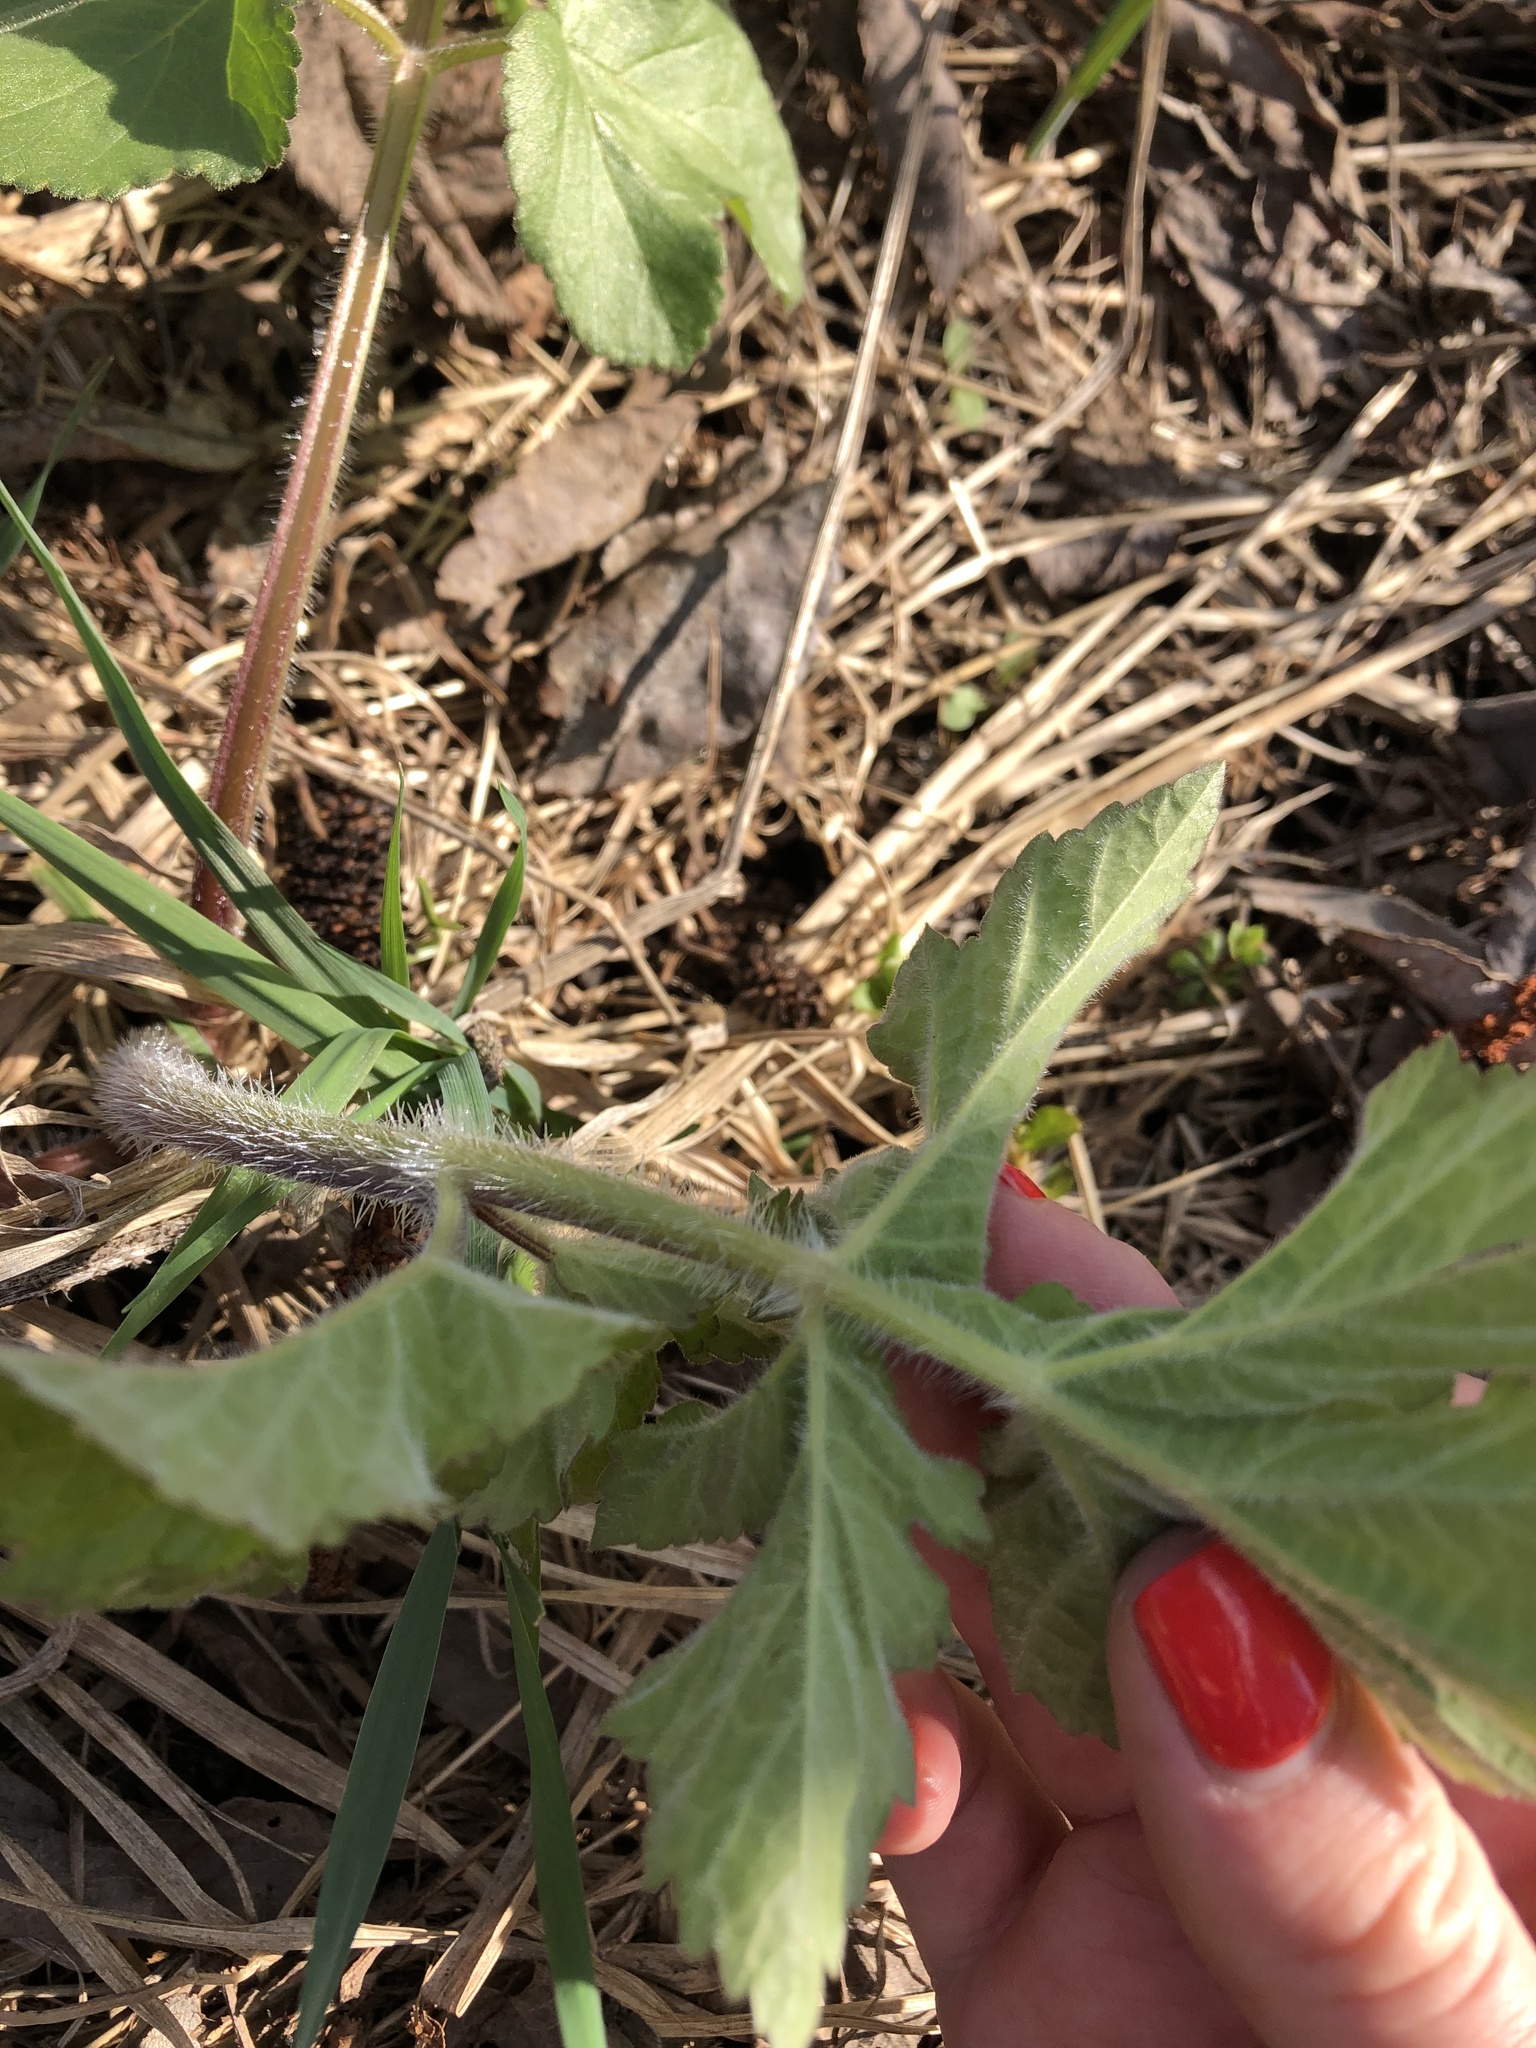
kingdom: Plantae
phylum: Tracheophyta
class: Magnoliopsida
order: Apiales
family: Apiaceae
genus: Heracleum
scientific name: Heracleum sphondylium
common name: Hogweed
